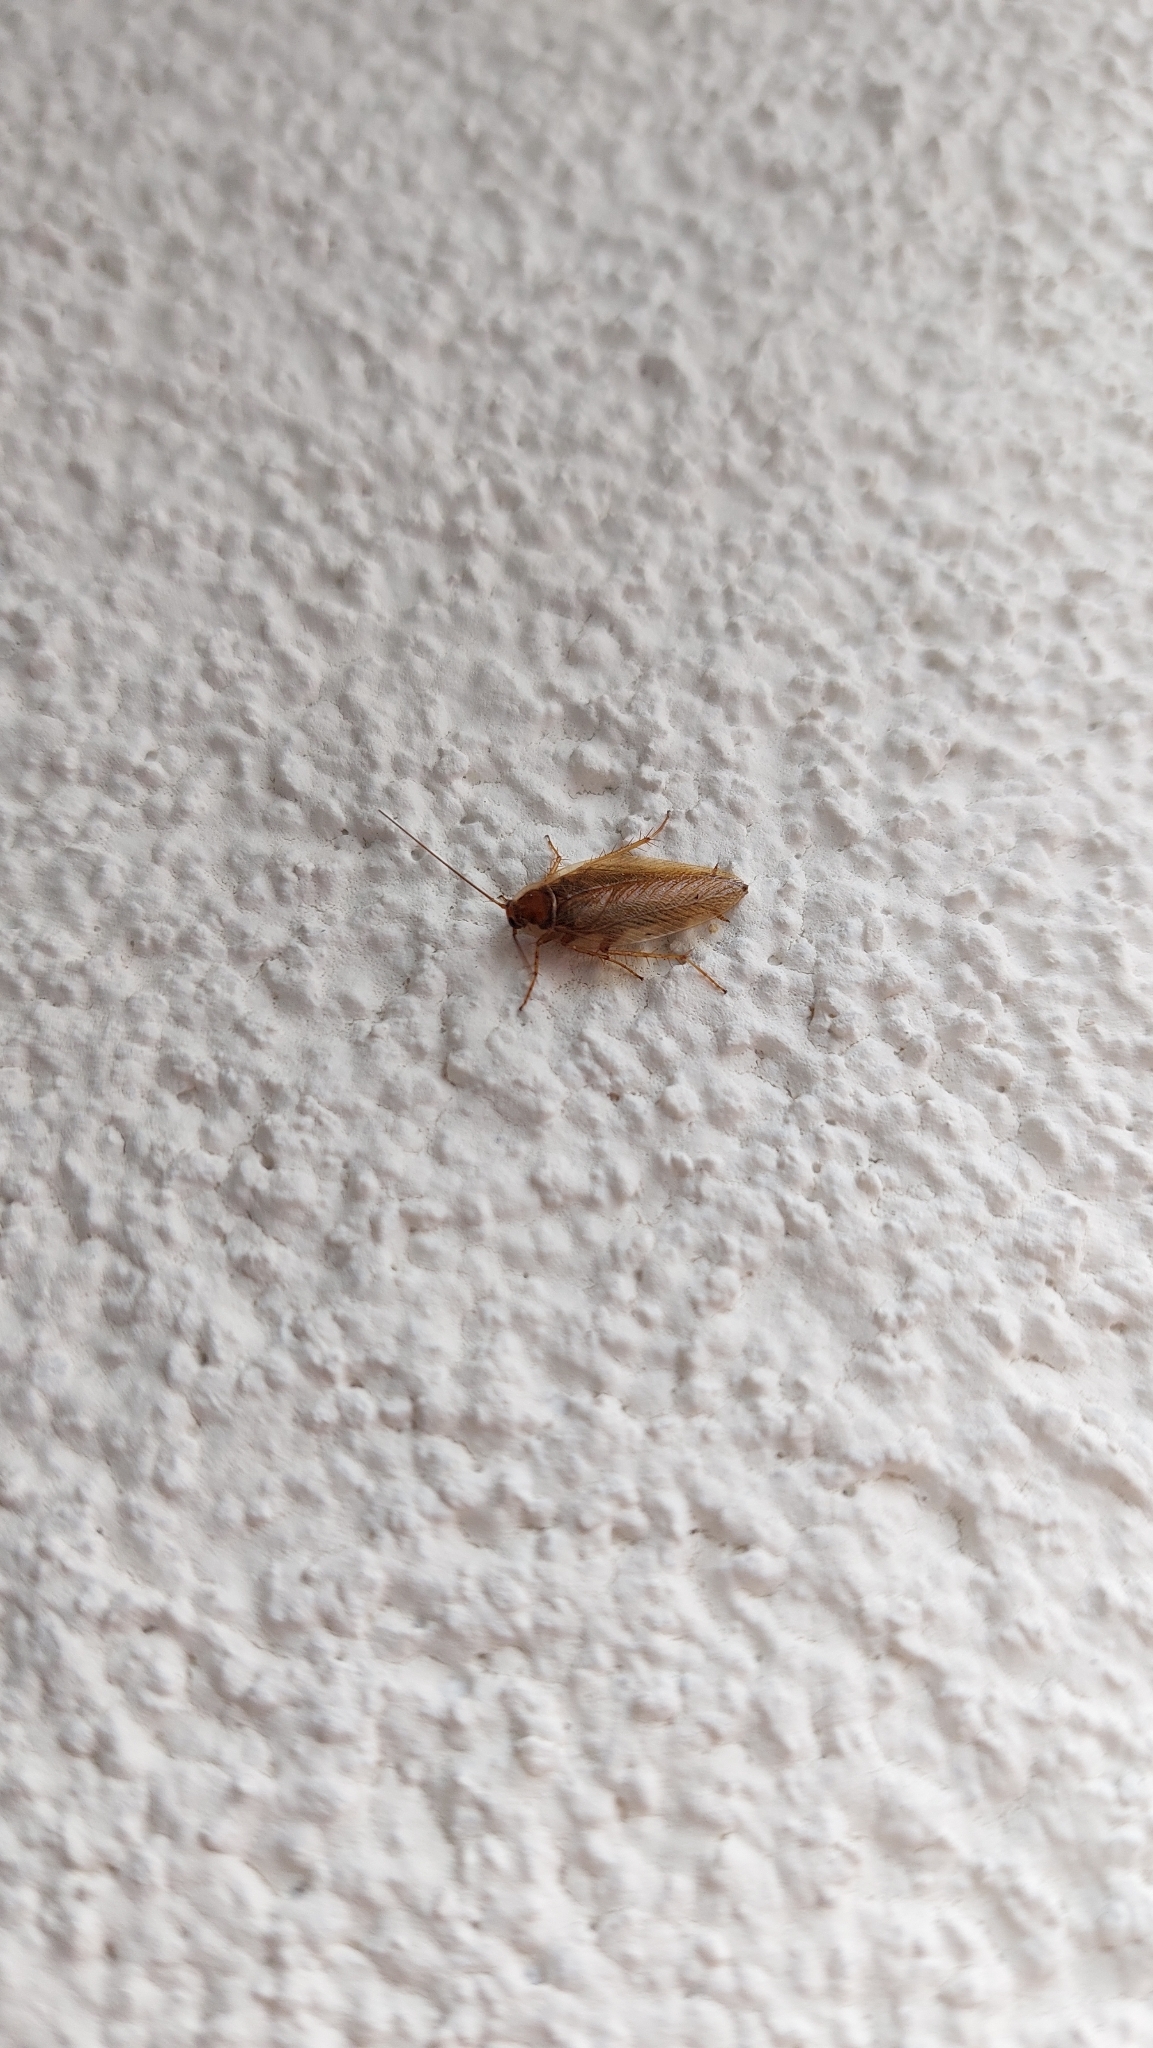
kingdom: Animalia
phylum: Arthropoda
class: Insecta
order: Blattodea
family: Ectobiidae
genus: Ectobius
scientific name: Ectobius vittiventris
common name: Garden cockroach
